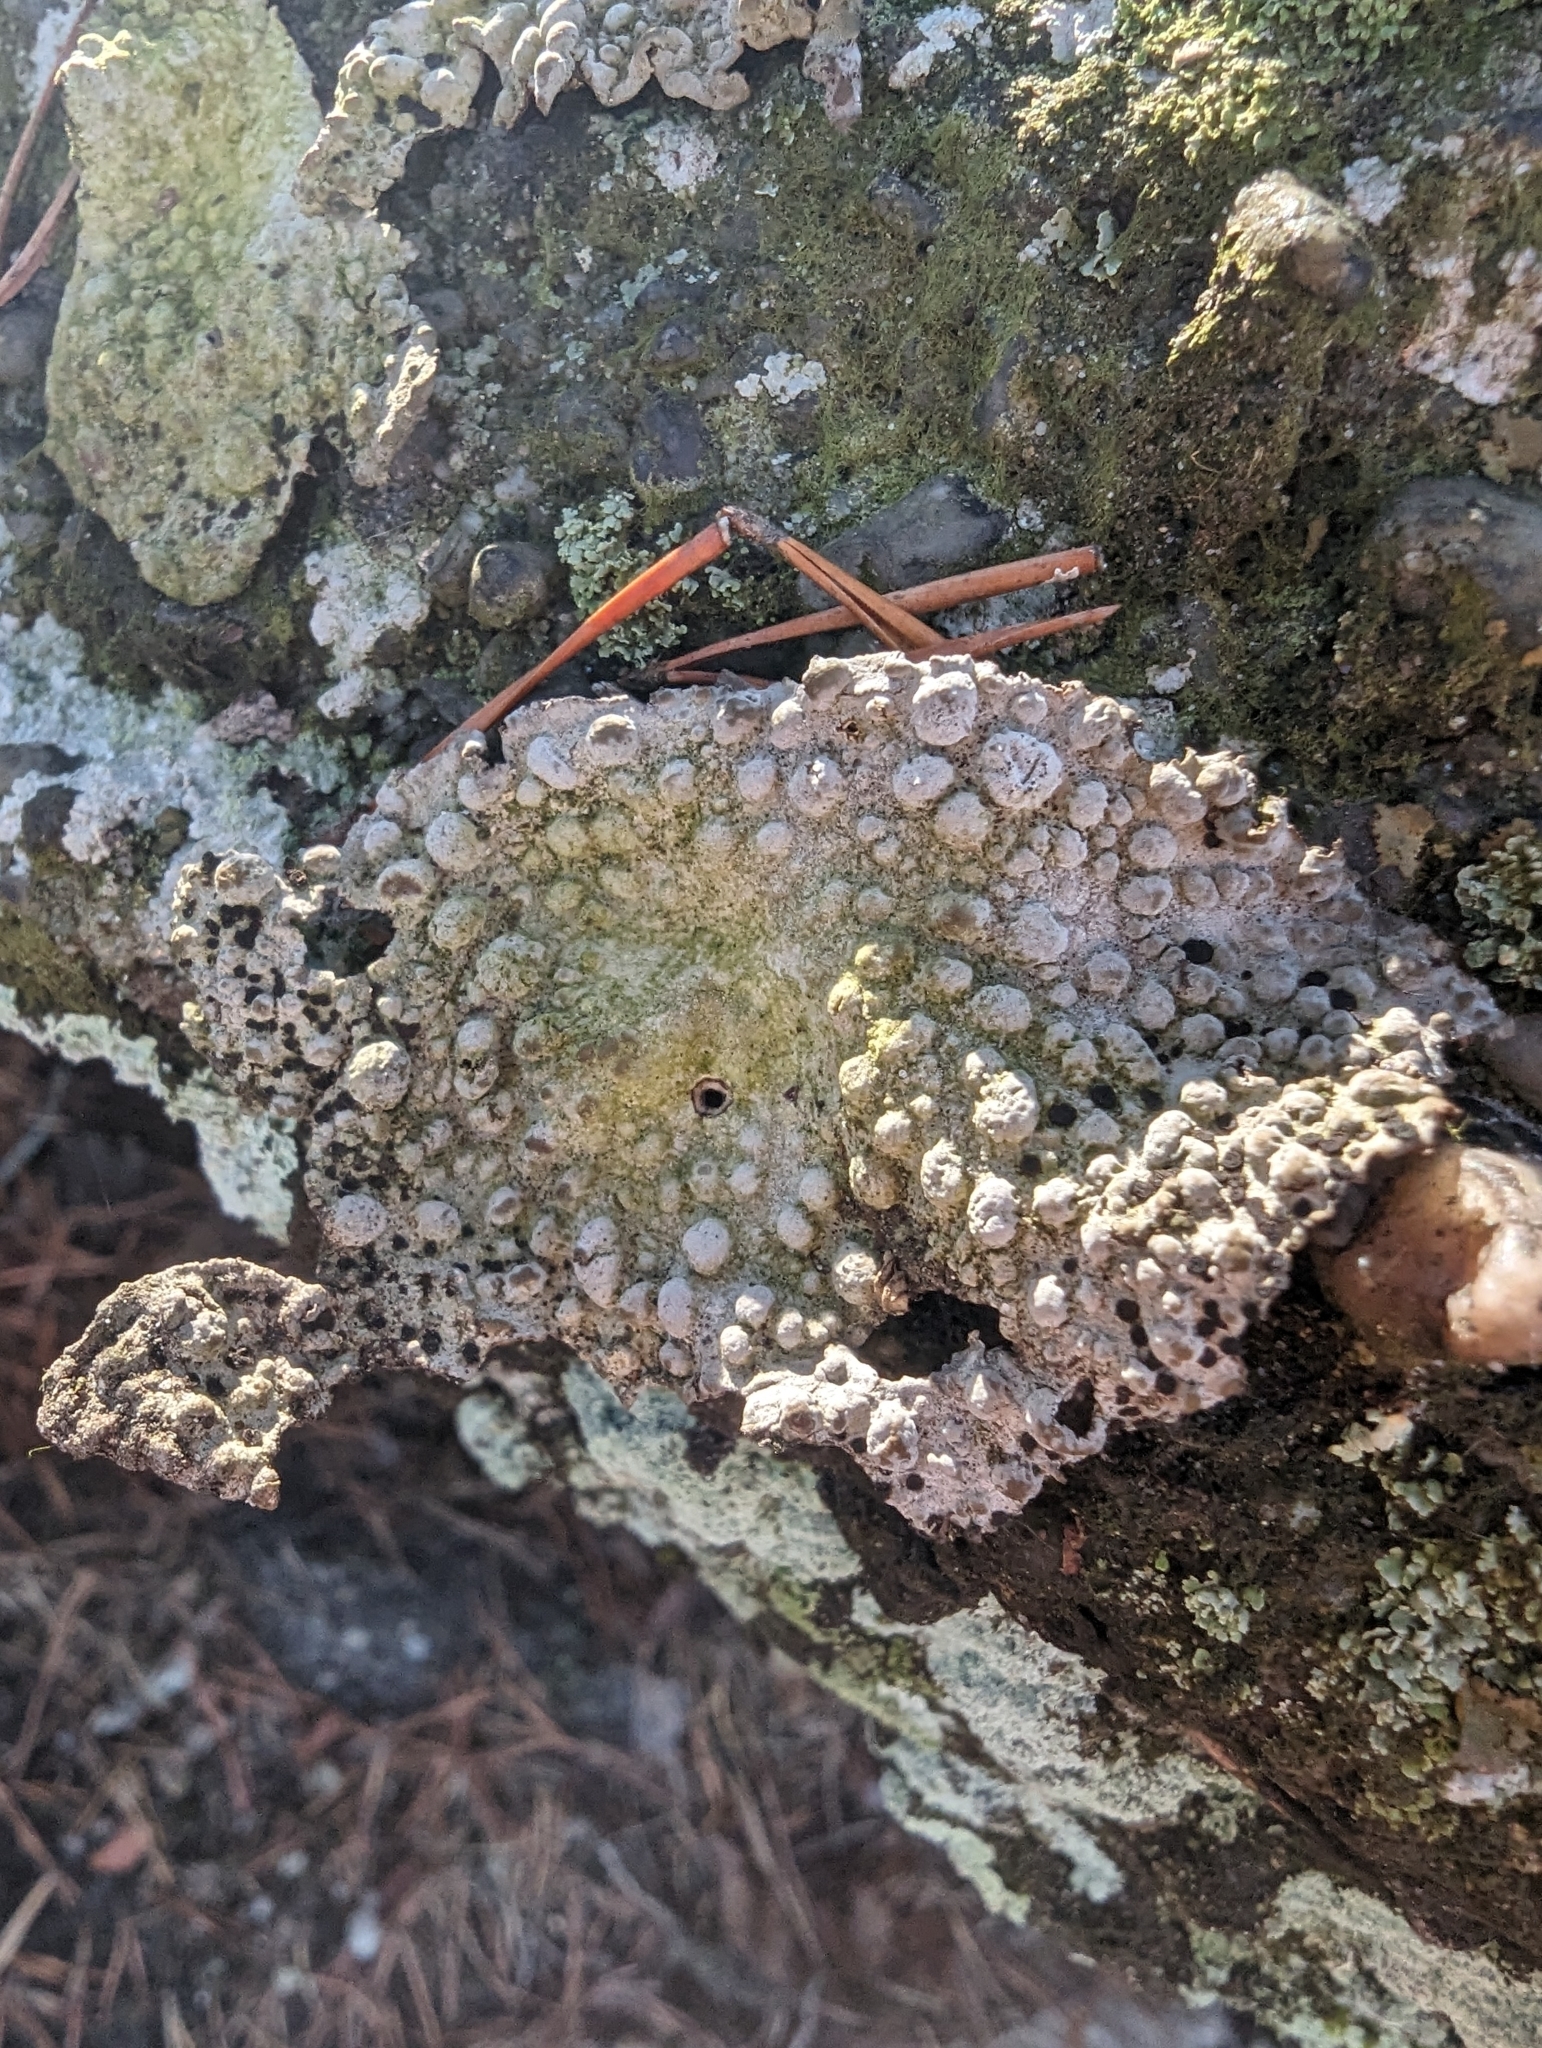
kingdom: Fungi
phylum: Ascomycota
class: Lecanoromycetes
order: Umbilicariales
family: Umbilicariaceae
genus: Lasallia
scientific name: Lasallia papulosa
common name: Common toadskin lichen
